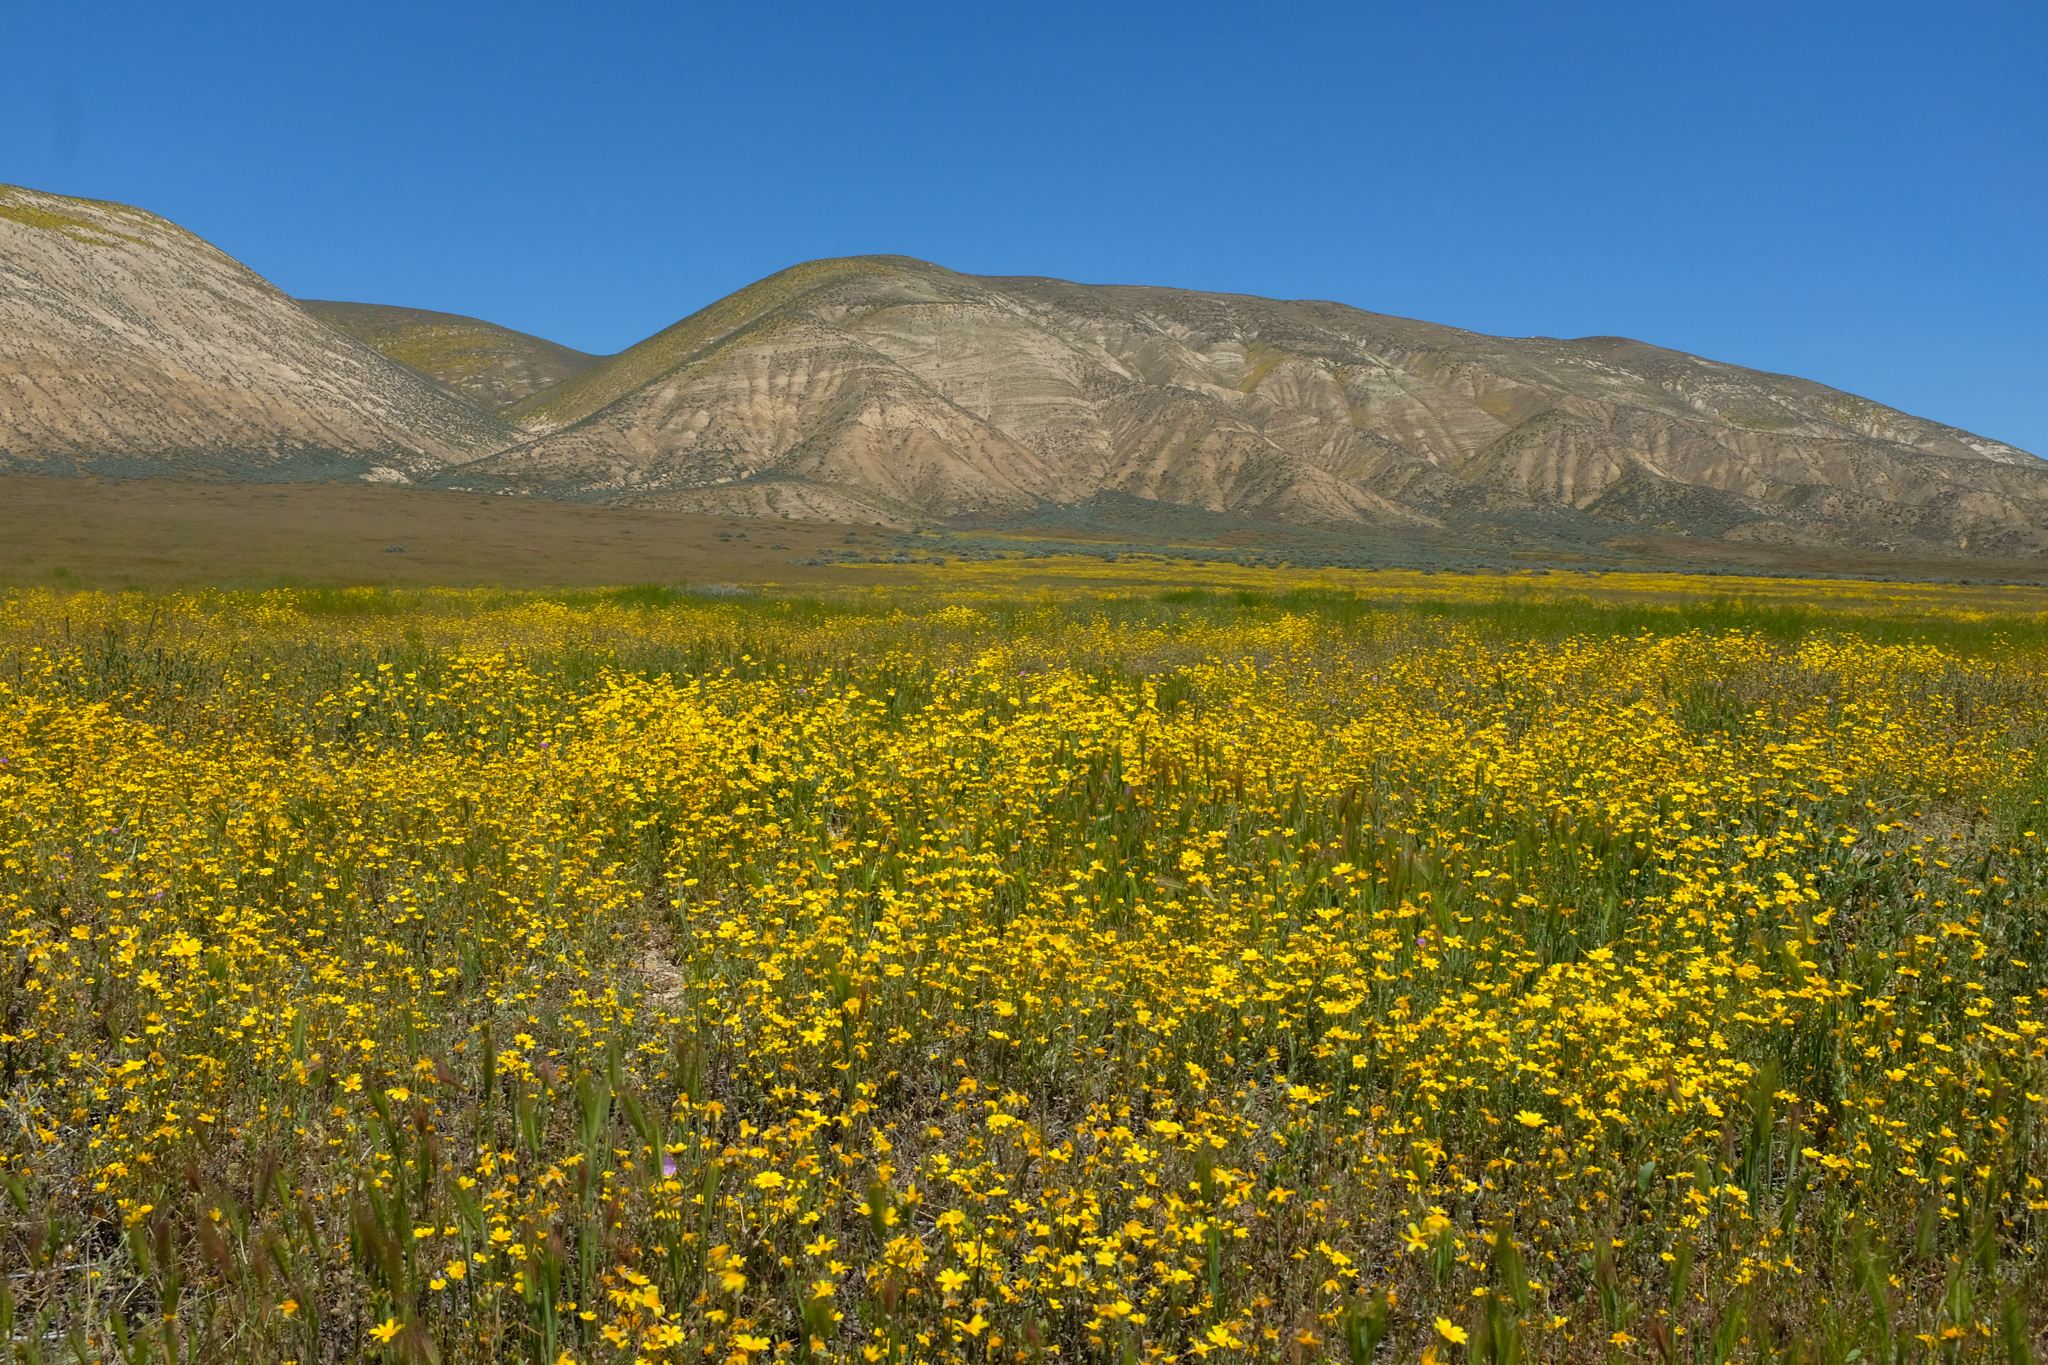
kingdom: Plantae
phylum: Tracheophyta
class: Magnoliopsida
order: Asterales
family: Asteraceae
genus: Monolopia
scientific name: Monolopia lanceolata
